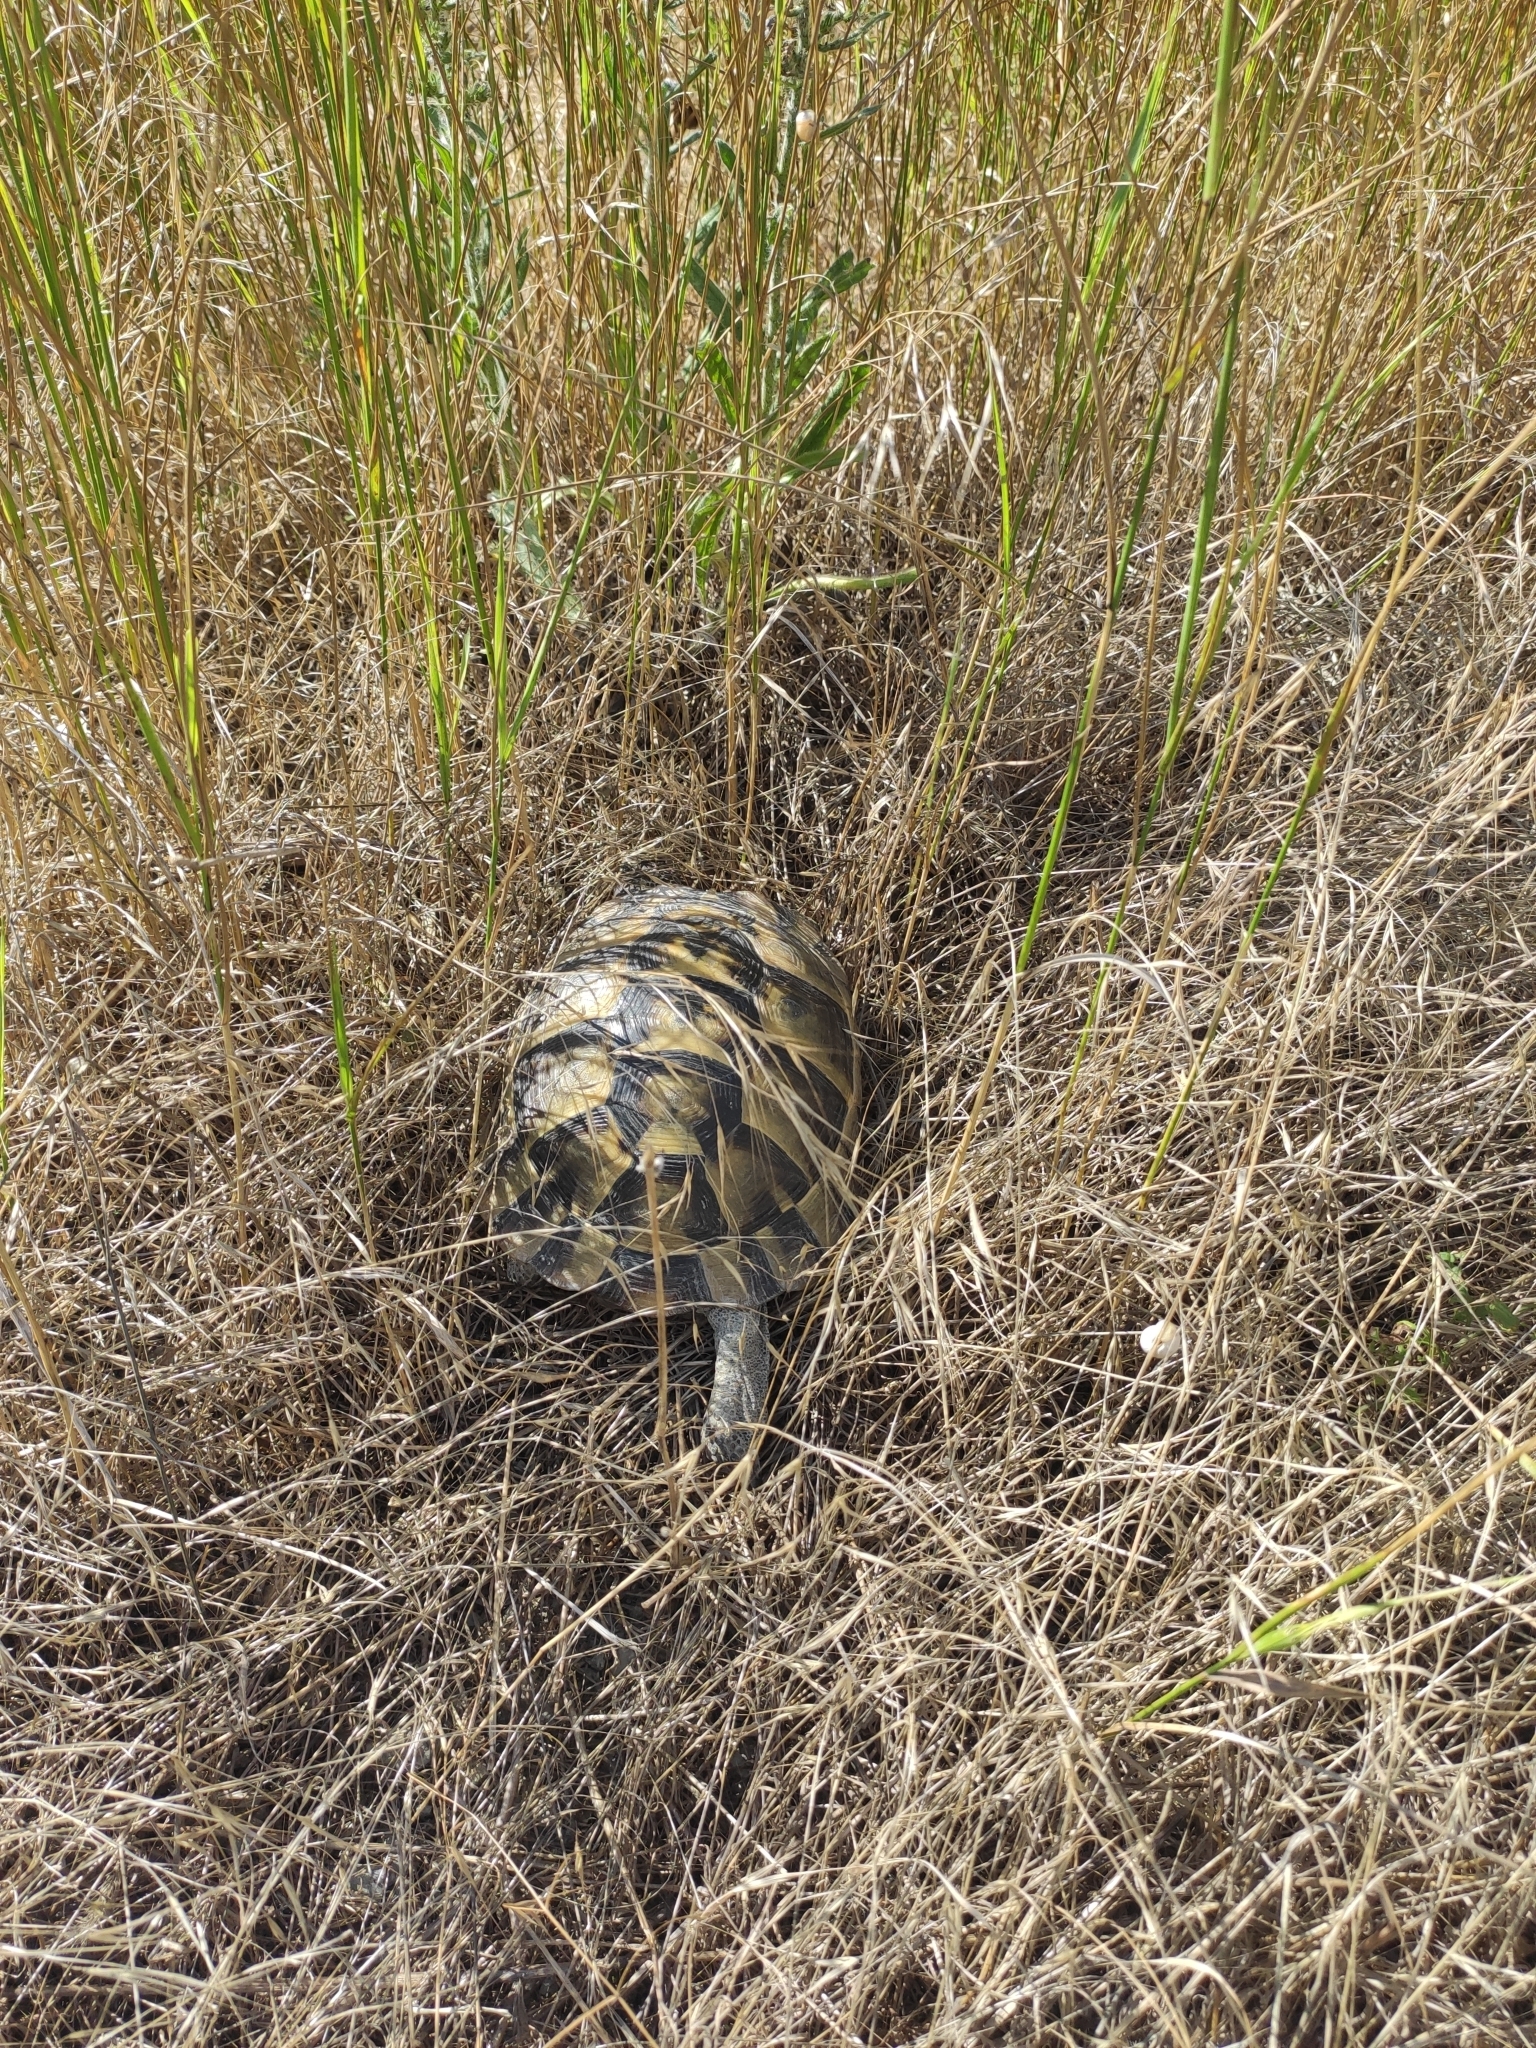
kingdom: Animalia
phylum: Chordata
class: Testudines
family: Testudinidae
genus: Testudo
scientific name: Testudo graeca
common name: Common tortoise
